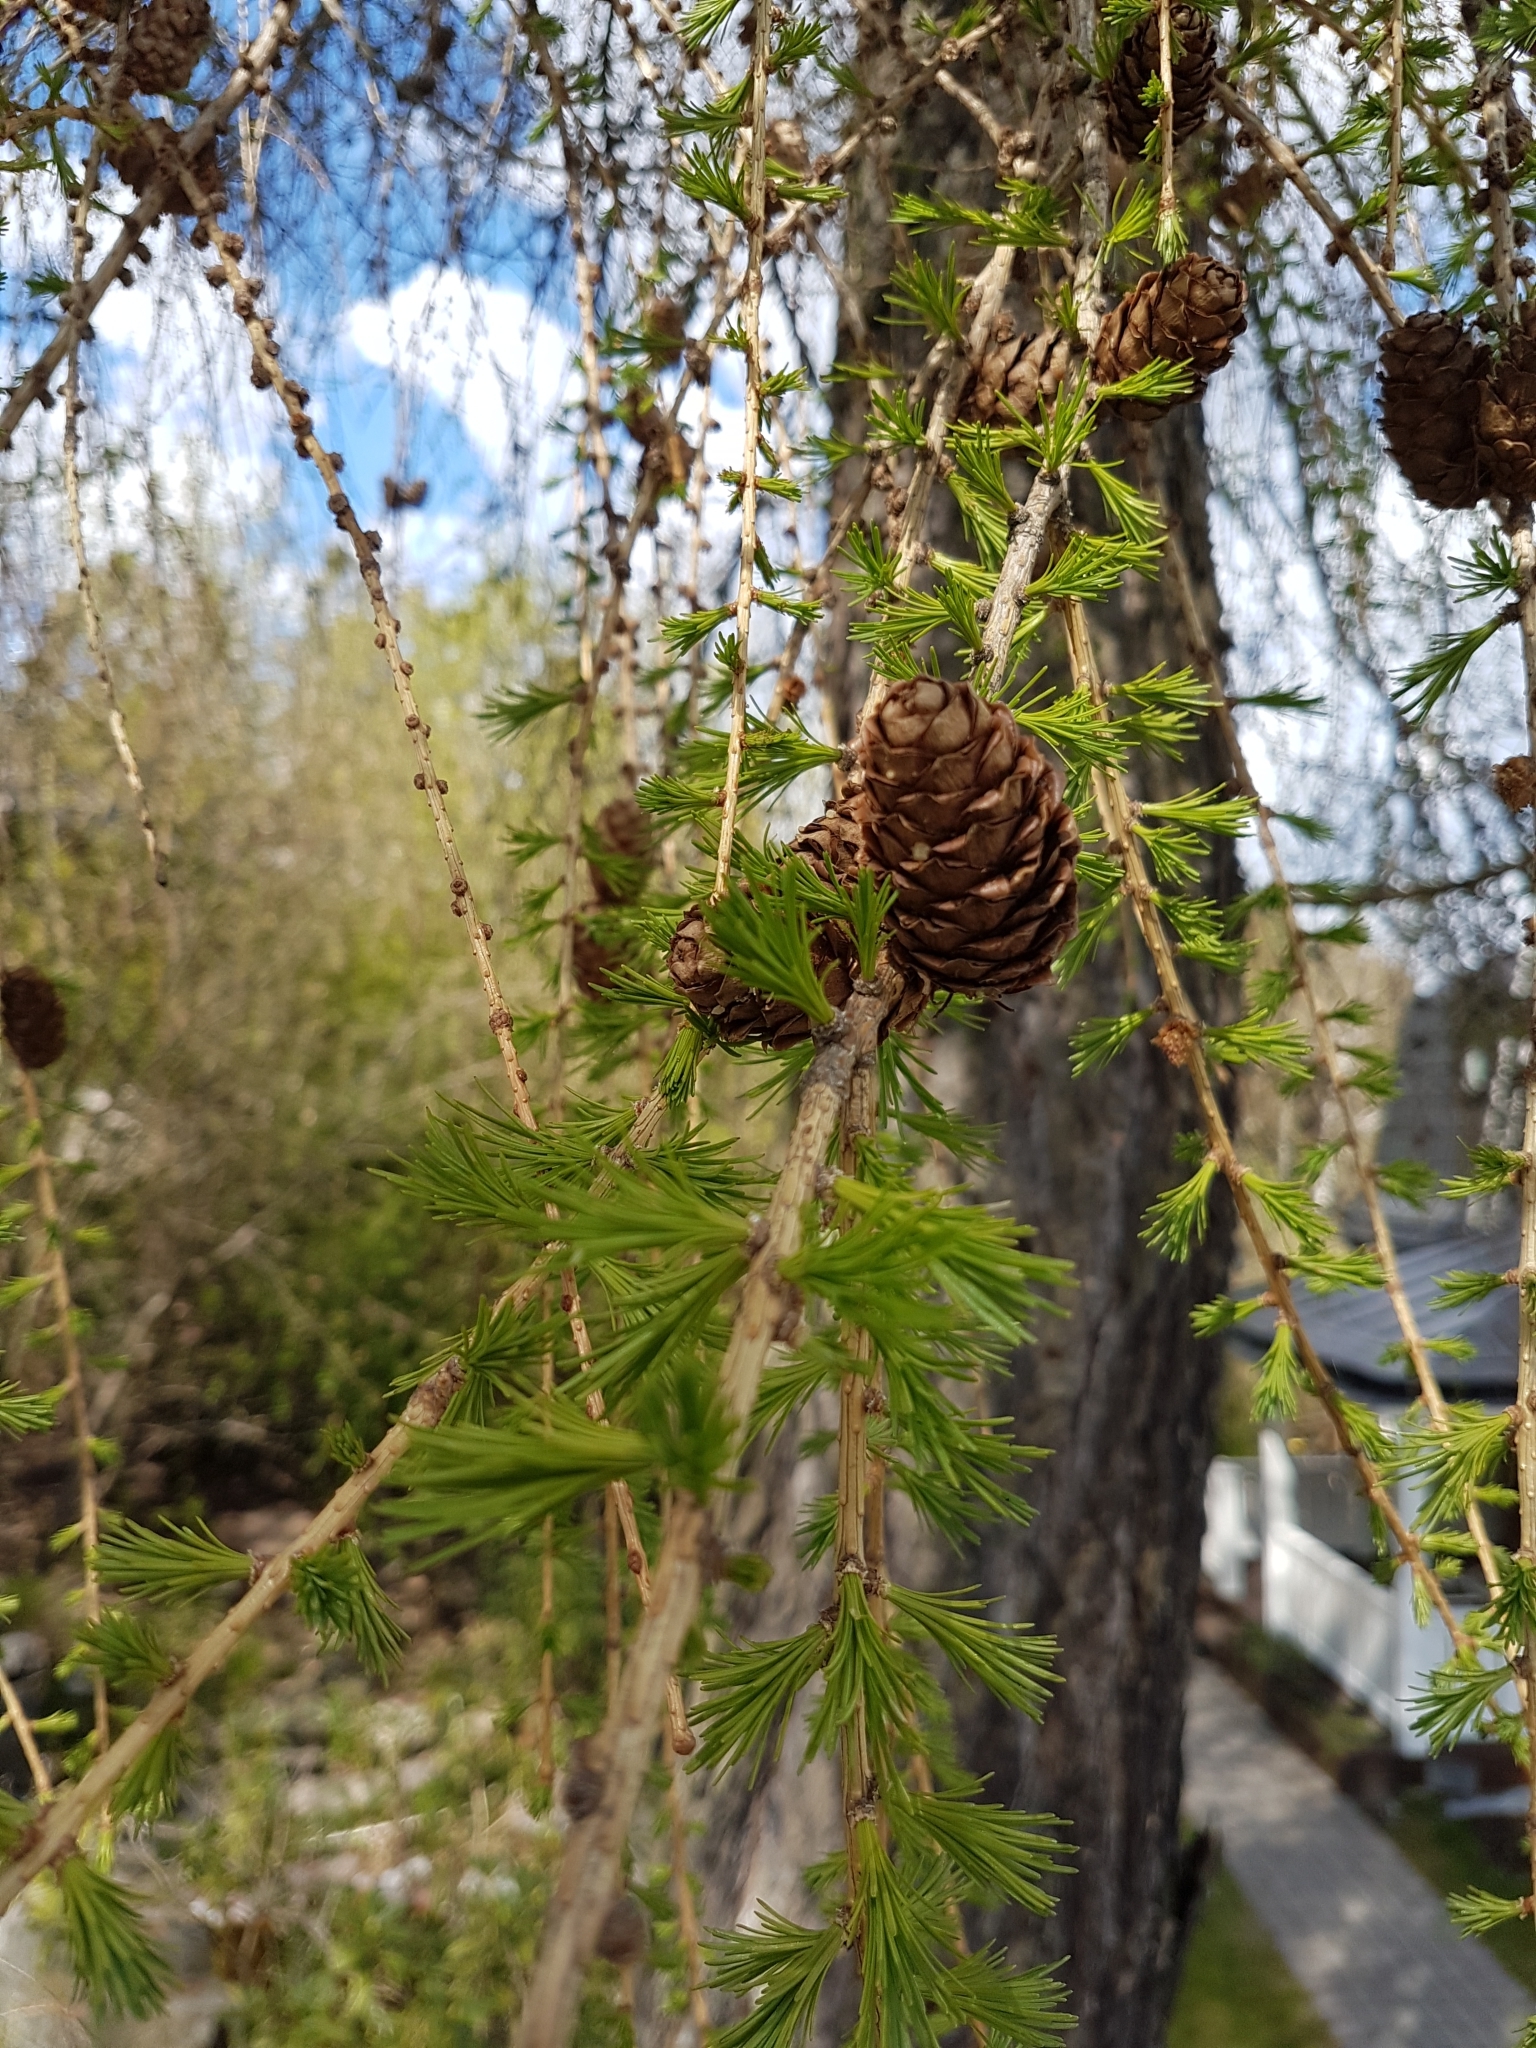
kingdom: Plantae
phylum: Tracheophyta
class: Pinopsida
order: Pinales
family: Pinaceae
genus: Larix
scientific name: Larix decidua
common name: European larch
